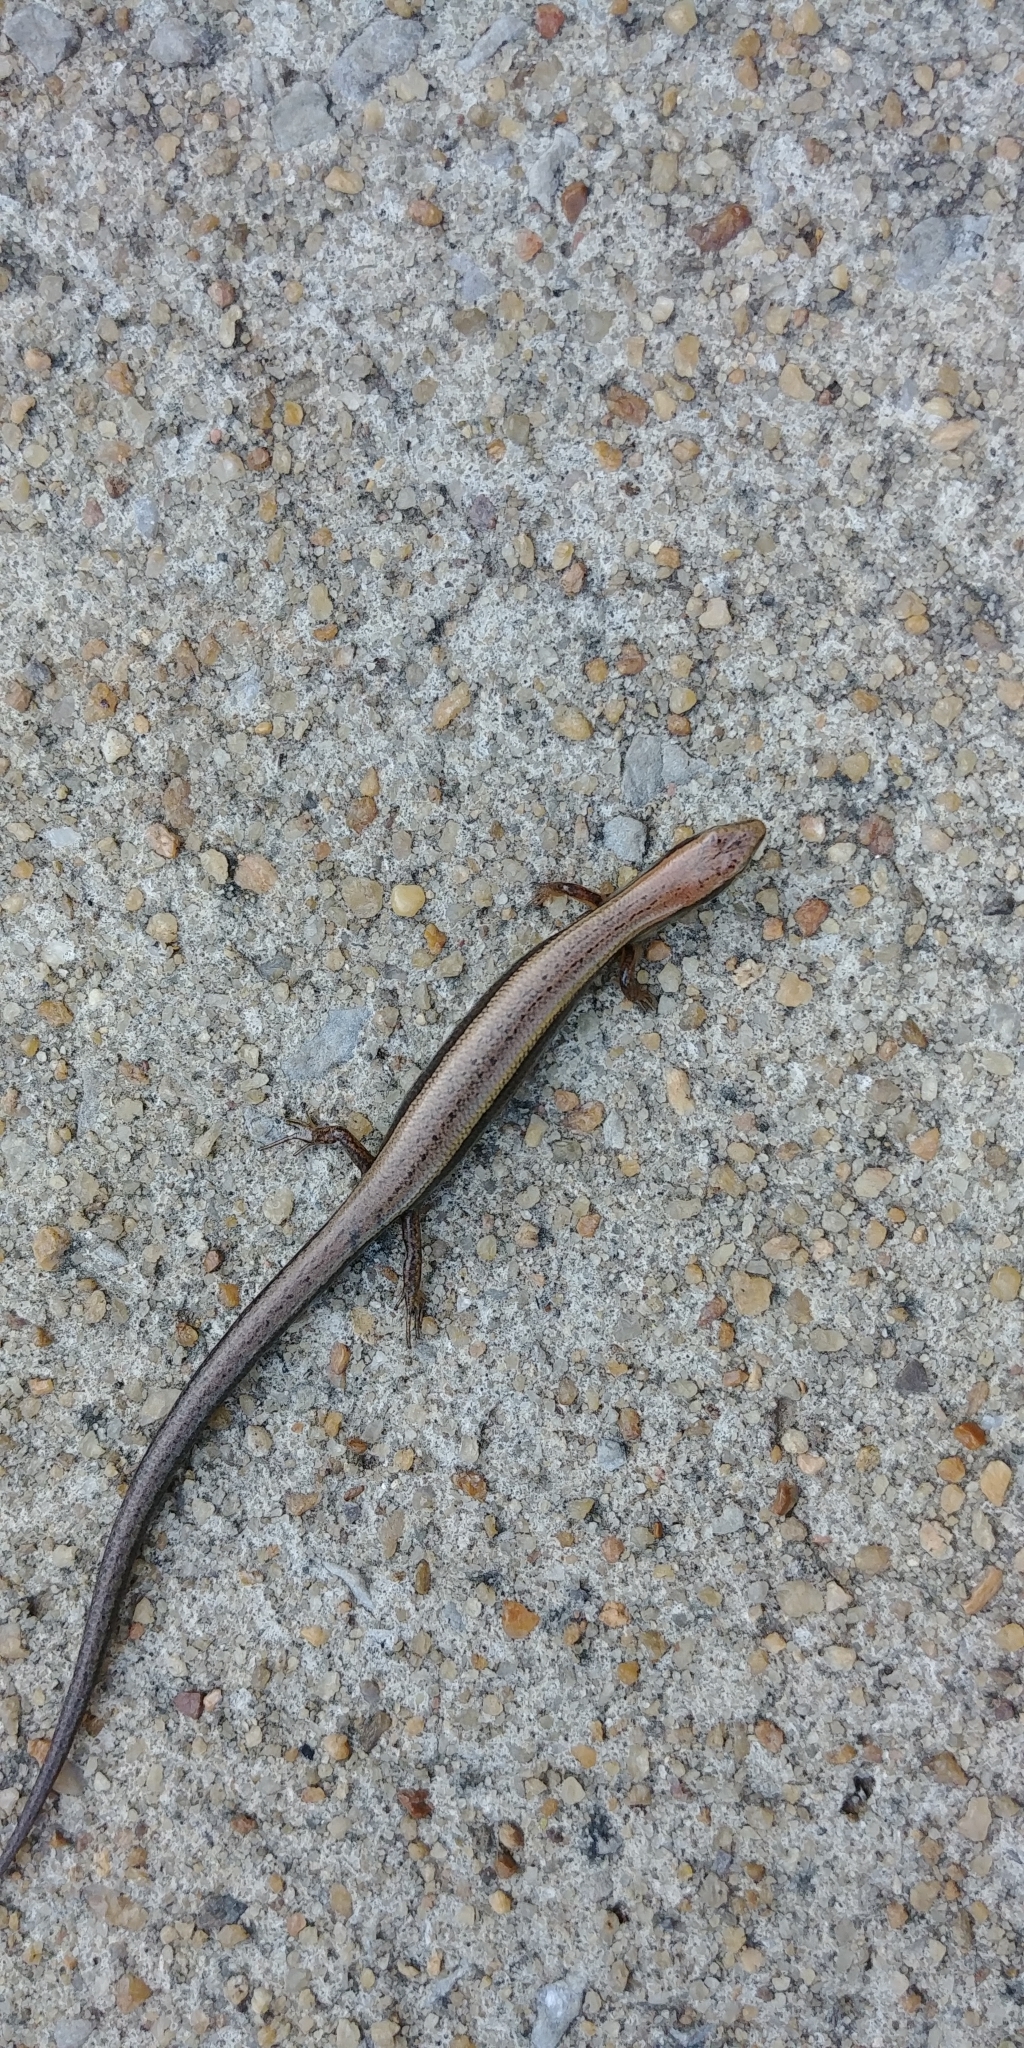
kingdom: Animalia
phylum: Chordata
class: Squamata
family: Scincidae
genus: Scincella
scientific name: Scincella lateralis
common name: Ground skink
